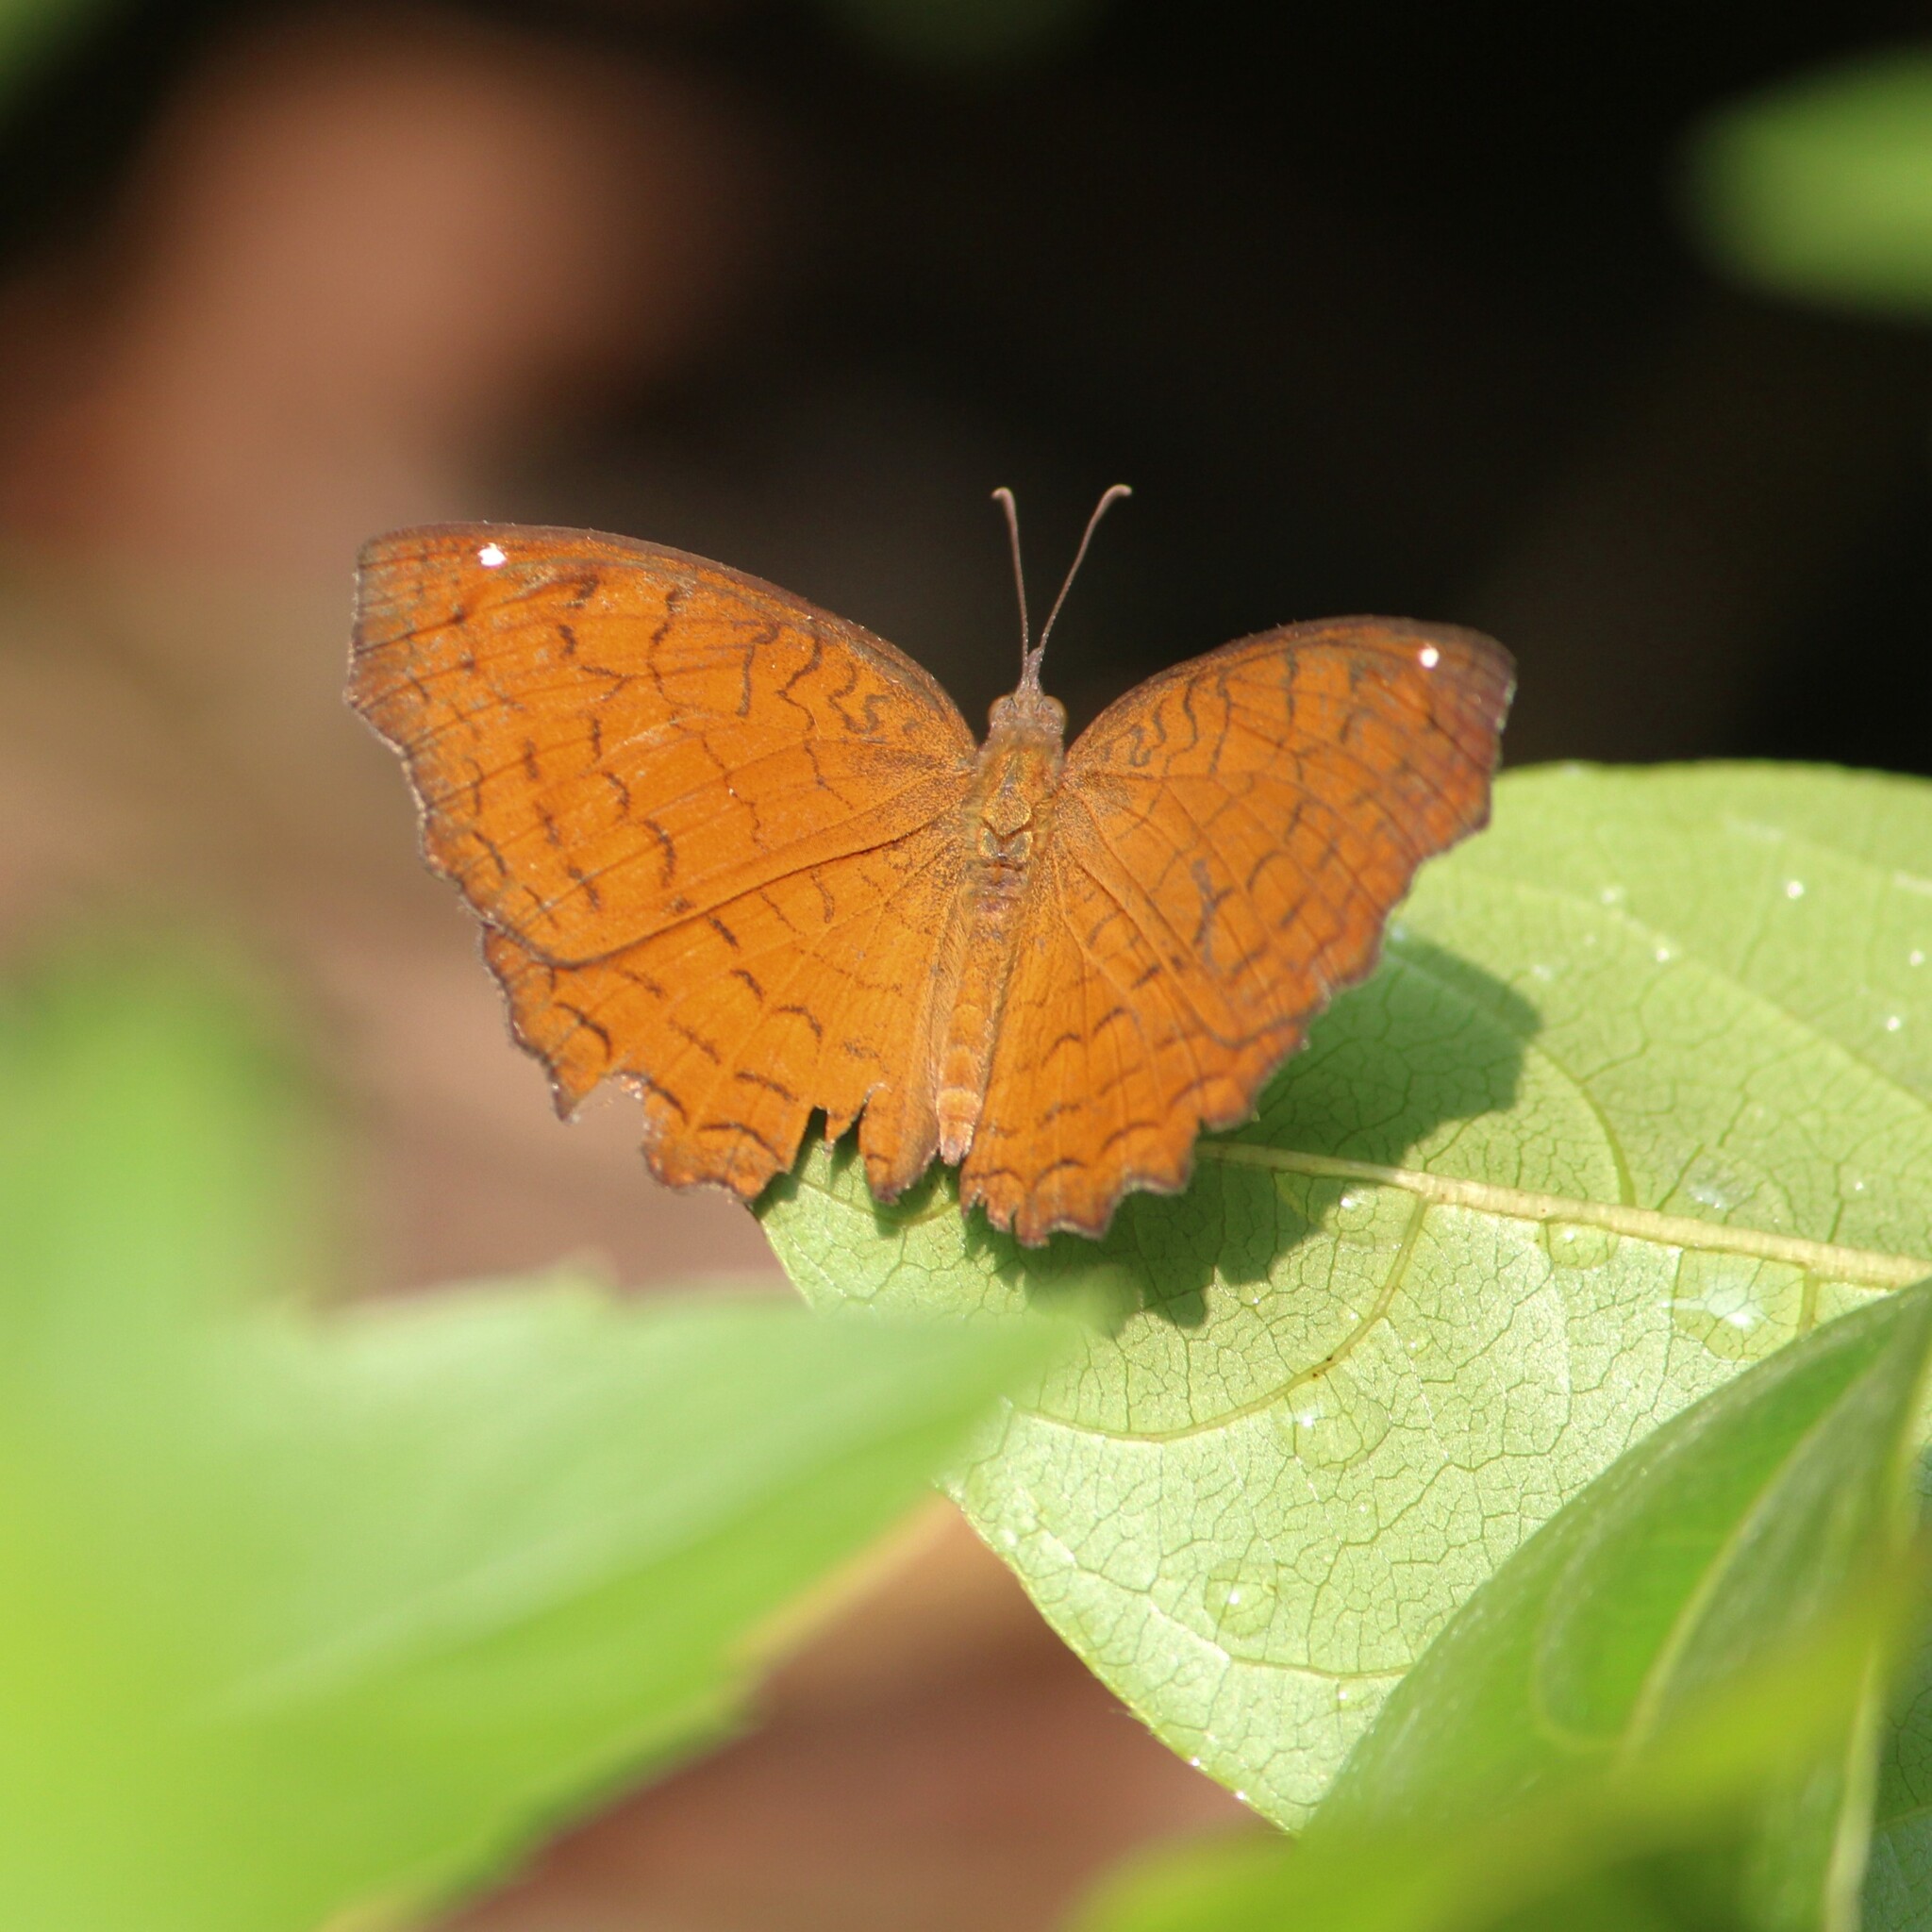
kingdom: Animalia
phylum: Arthropoda
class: Insecta
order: Lepidoptera
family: Nymphalidae
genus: Ariadne
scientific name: Ariadne ariadne
